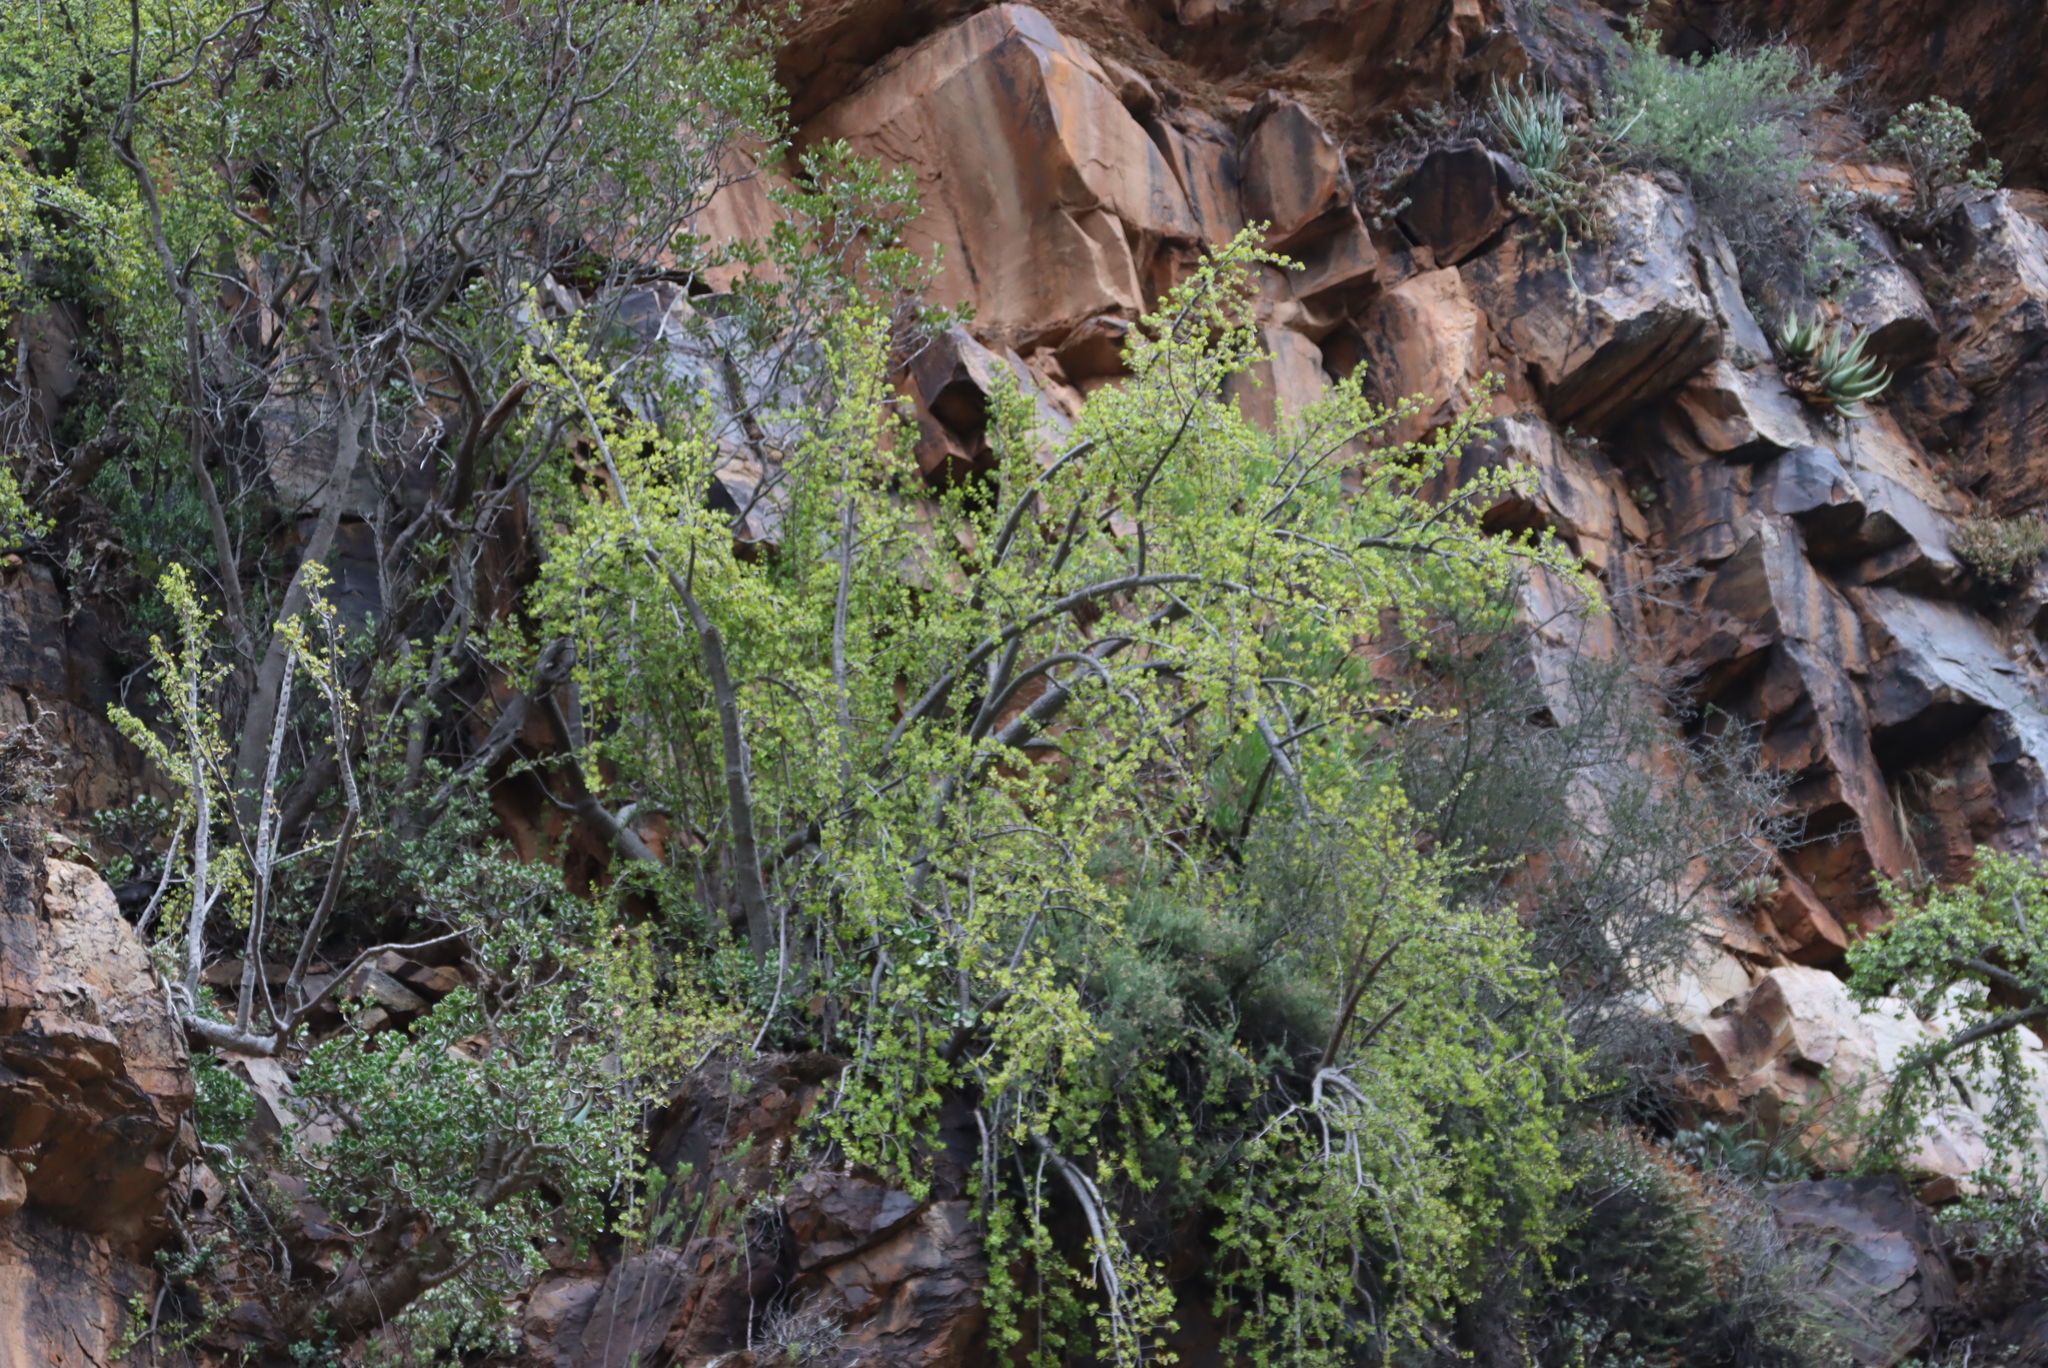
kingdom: Plantae
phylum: Tracheophyta
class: Magnoliopsida
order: Caryophyllales
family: Didiereaceae
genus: Portulacaria
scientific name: Portulacaria afra
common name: Elephant-bush
